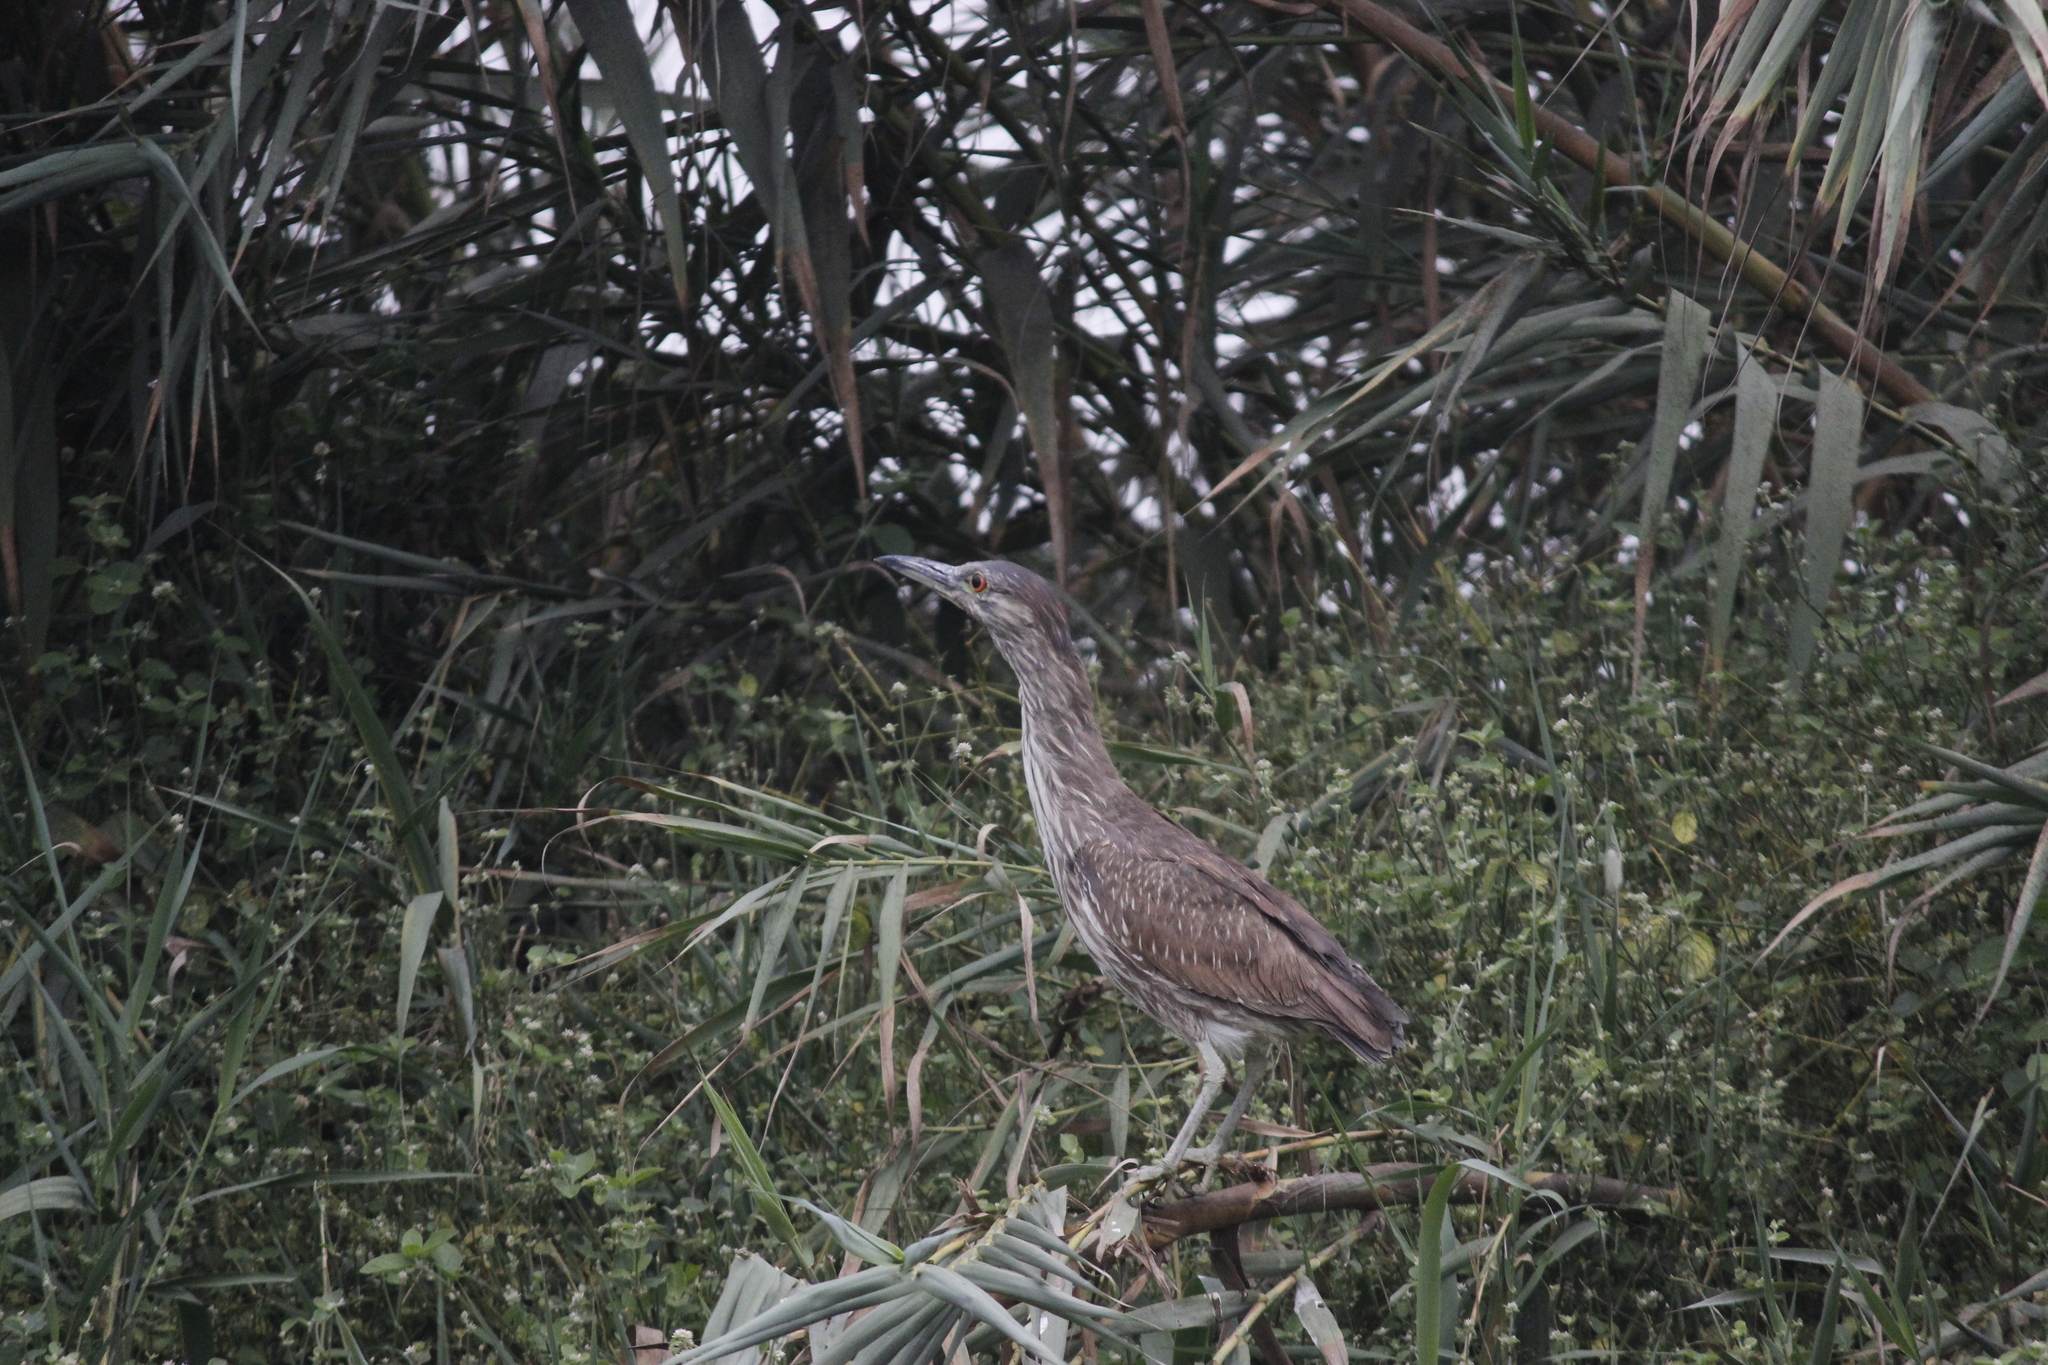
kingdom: Animalia
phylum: Chordata
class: Aves
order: Pelecaniformes
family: Ardeidae
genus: Nycticorax
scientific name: Nycticorax nycticorax
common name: Black-crowned night heron
